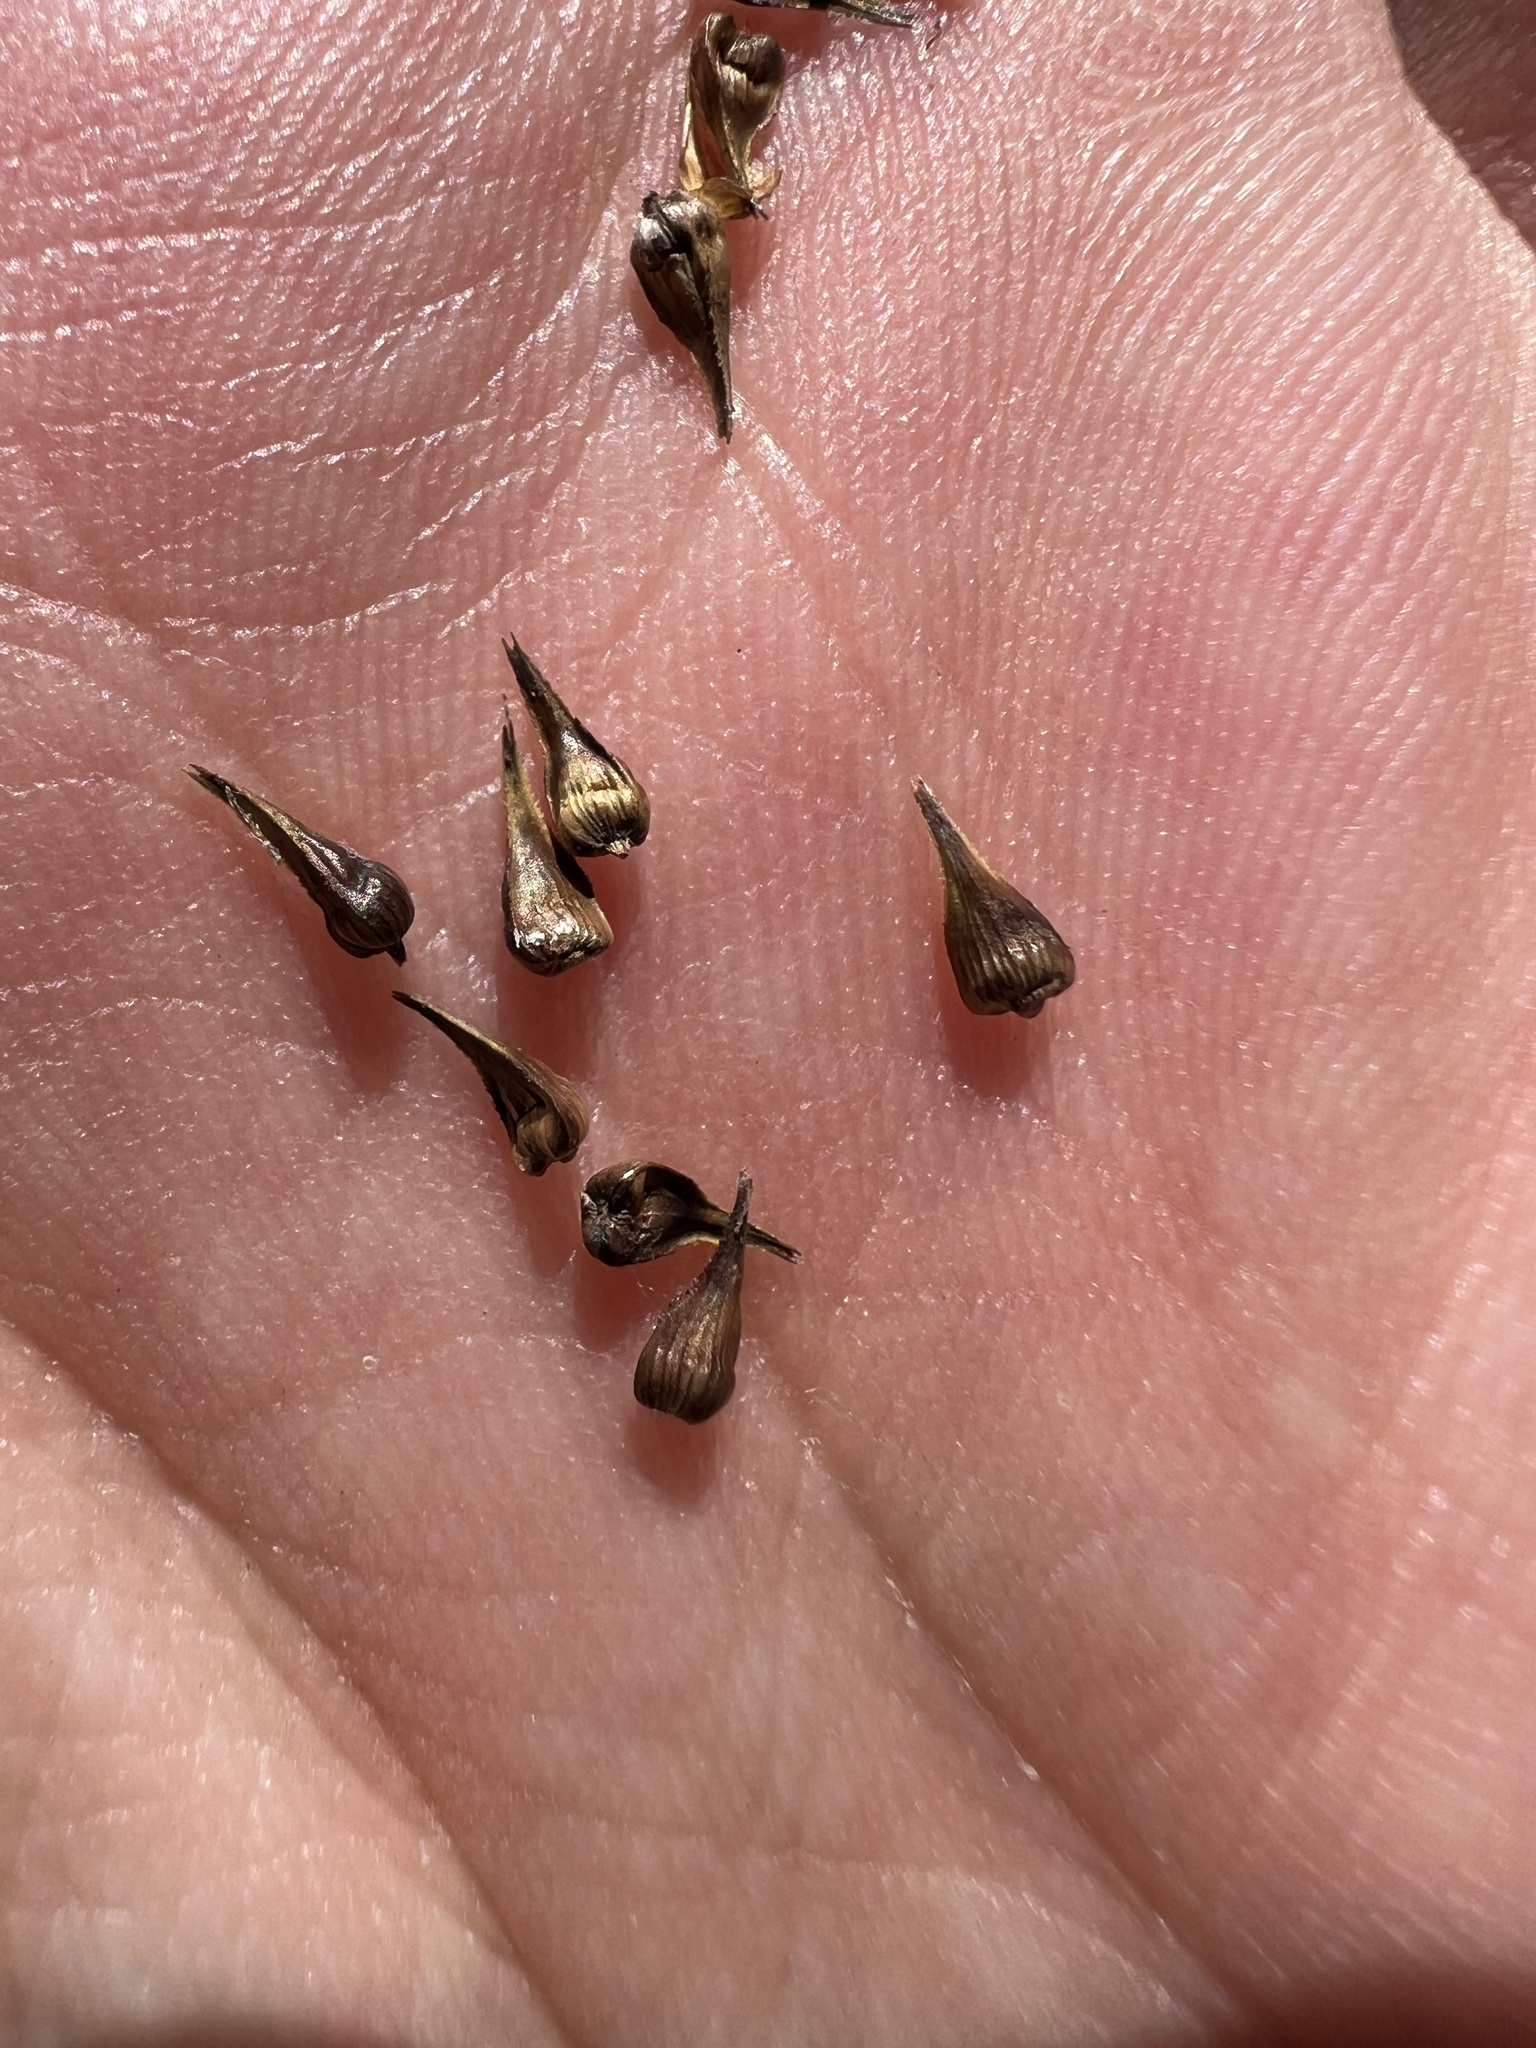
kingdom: Plantae
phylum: Tracheophyta
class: Liliopsida
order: Poales
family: Cyperaceae
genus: Carex
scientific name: Carex oklahomensis
